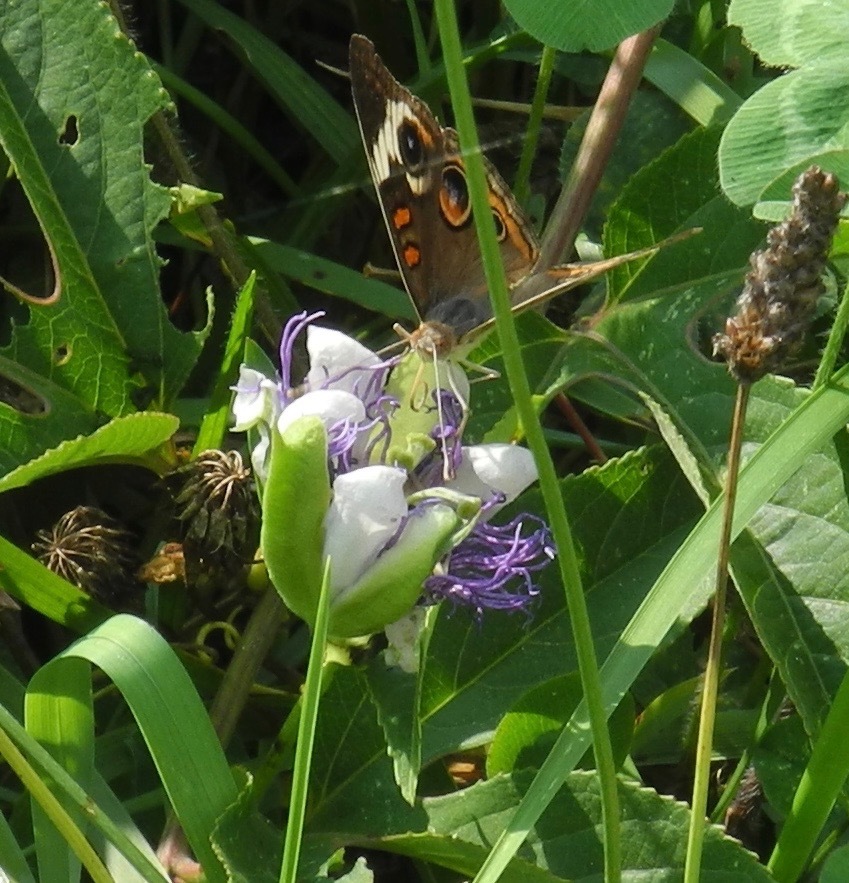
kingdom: Animalia
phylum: Arthropoda
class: Insecta
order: Lepidoptera
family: Nymphalidae
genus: Junonia
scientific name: Junonia coenia
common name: Common buckeye
